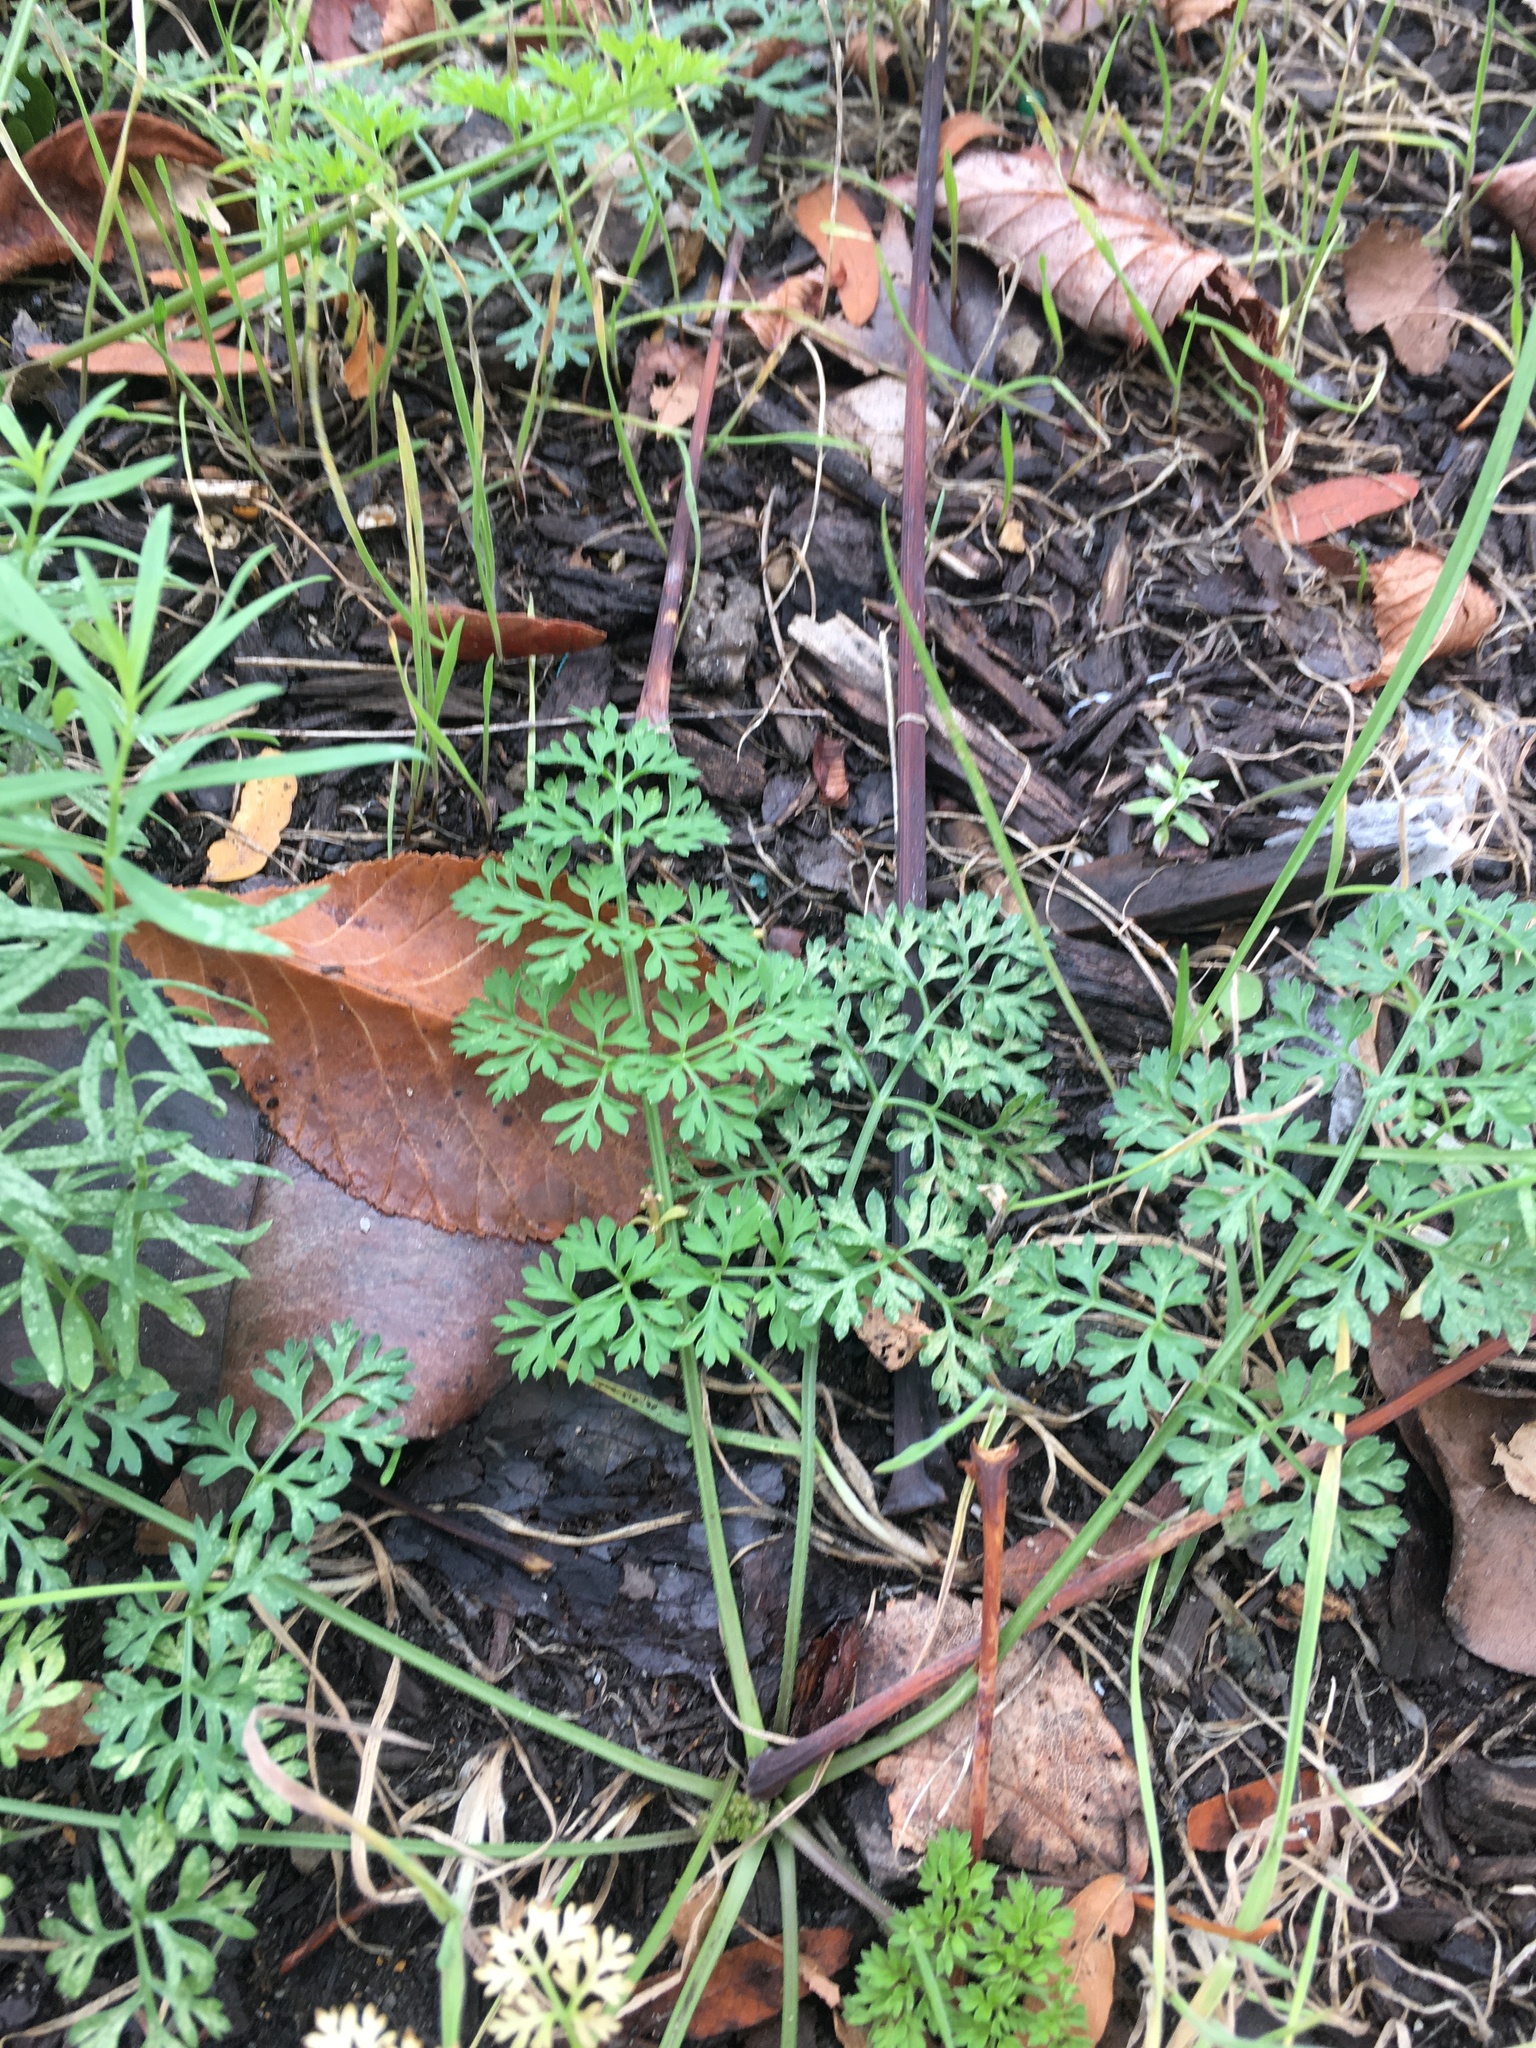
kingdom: Plantae
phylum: Tracheophyta
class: Magnoliopsida
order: Apiales
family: Apiaceae
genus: Daucus
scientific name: Daucus carota
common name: Wild carrot
